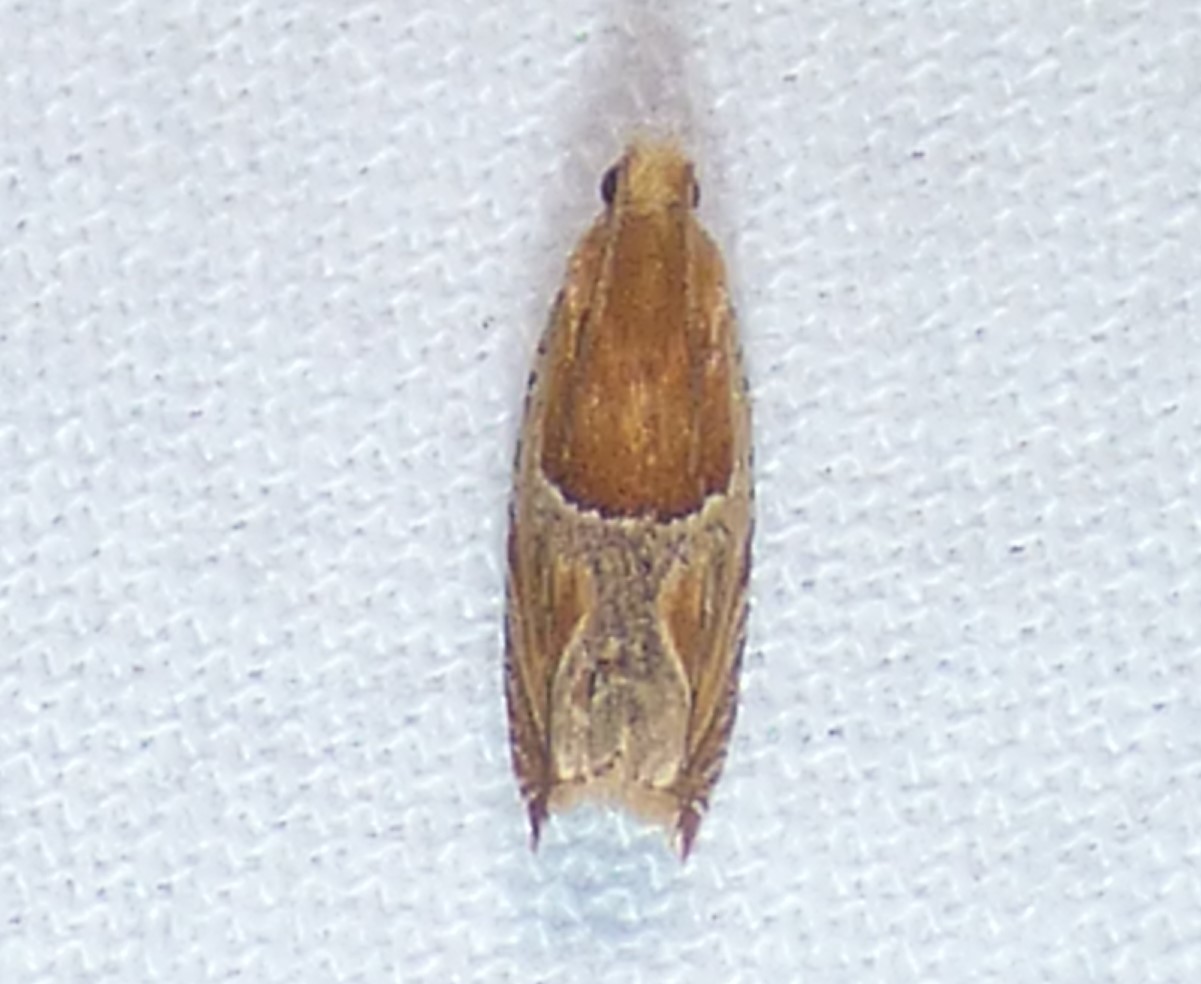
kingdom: Animalia
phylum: Arthropoda
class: Insecta
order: Lepidoptera
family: Tortricidae
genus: Ancylis
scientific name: Ancylis comptana
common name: Little roller
